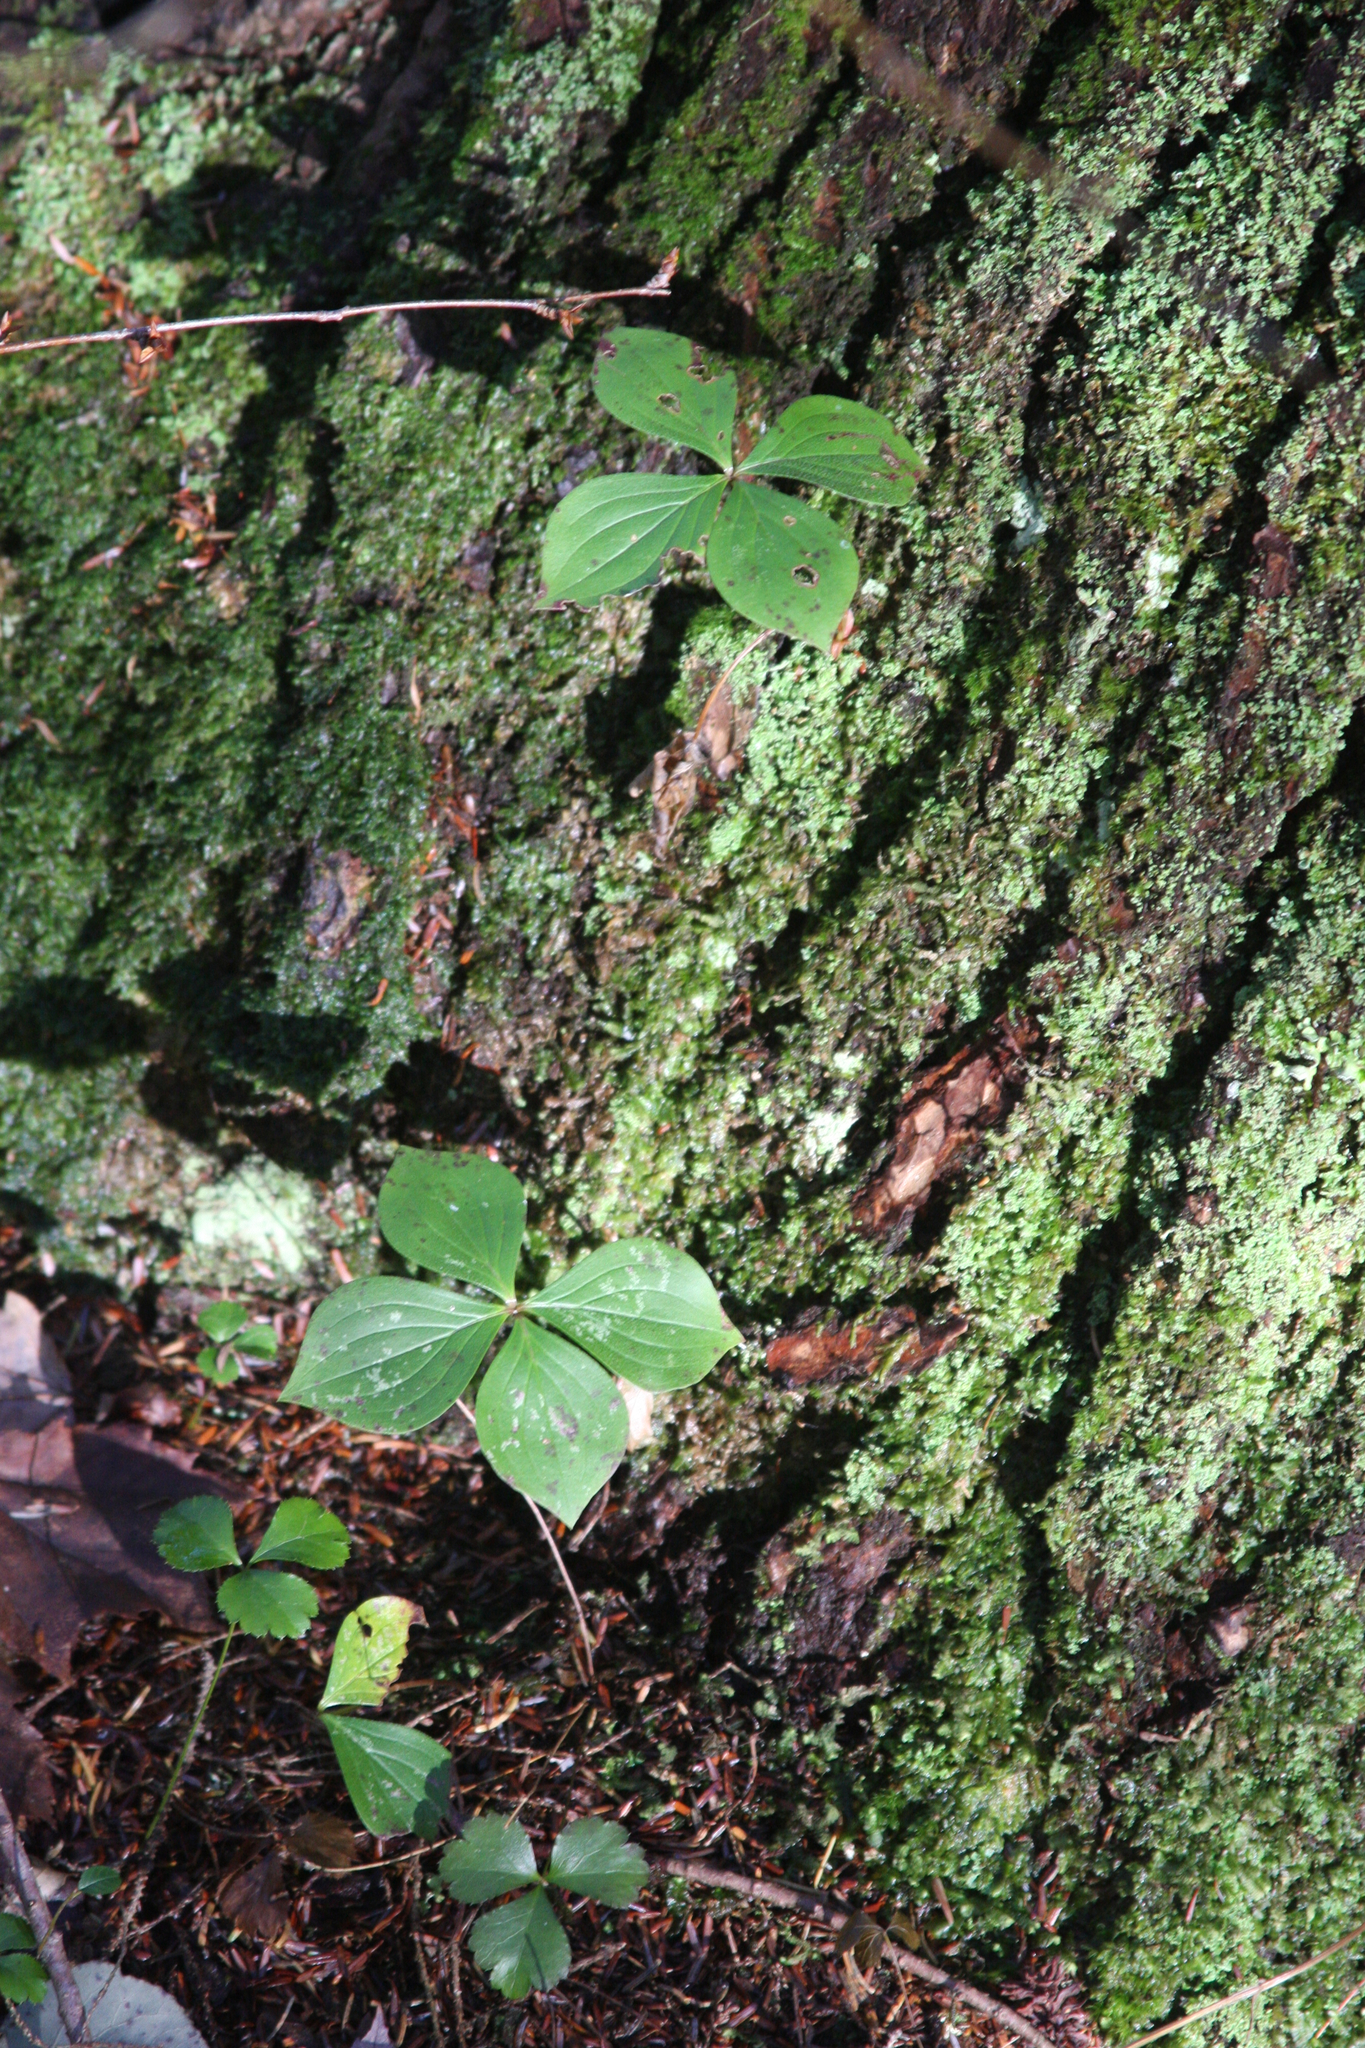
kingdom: Plantae
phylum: Tracheophyta
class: Magnoliopsida
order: Cornales
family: Cornaceae
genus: Cornus
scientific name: Cornus canadensis
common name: Creeping dogwood
